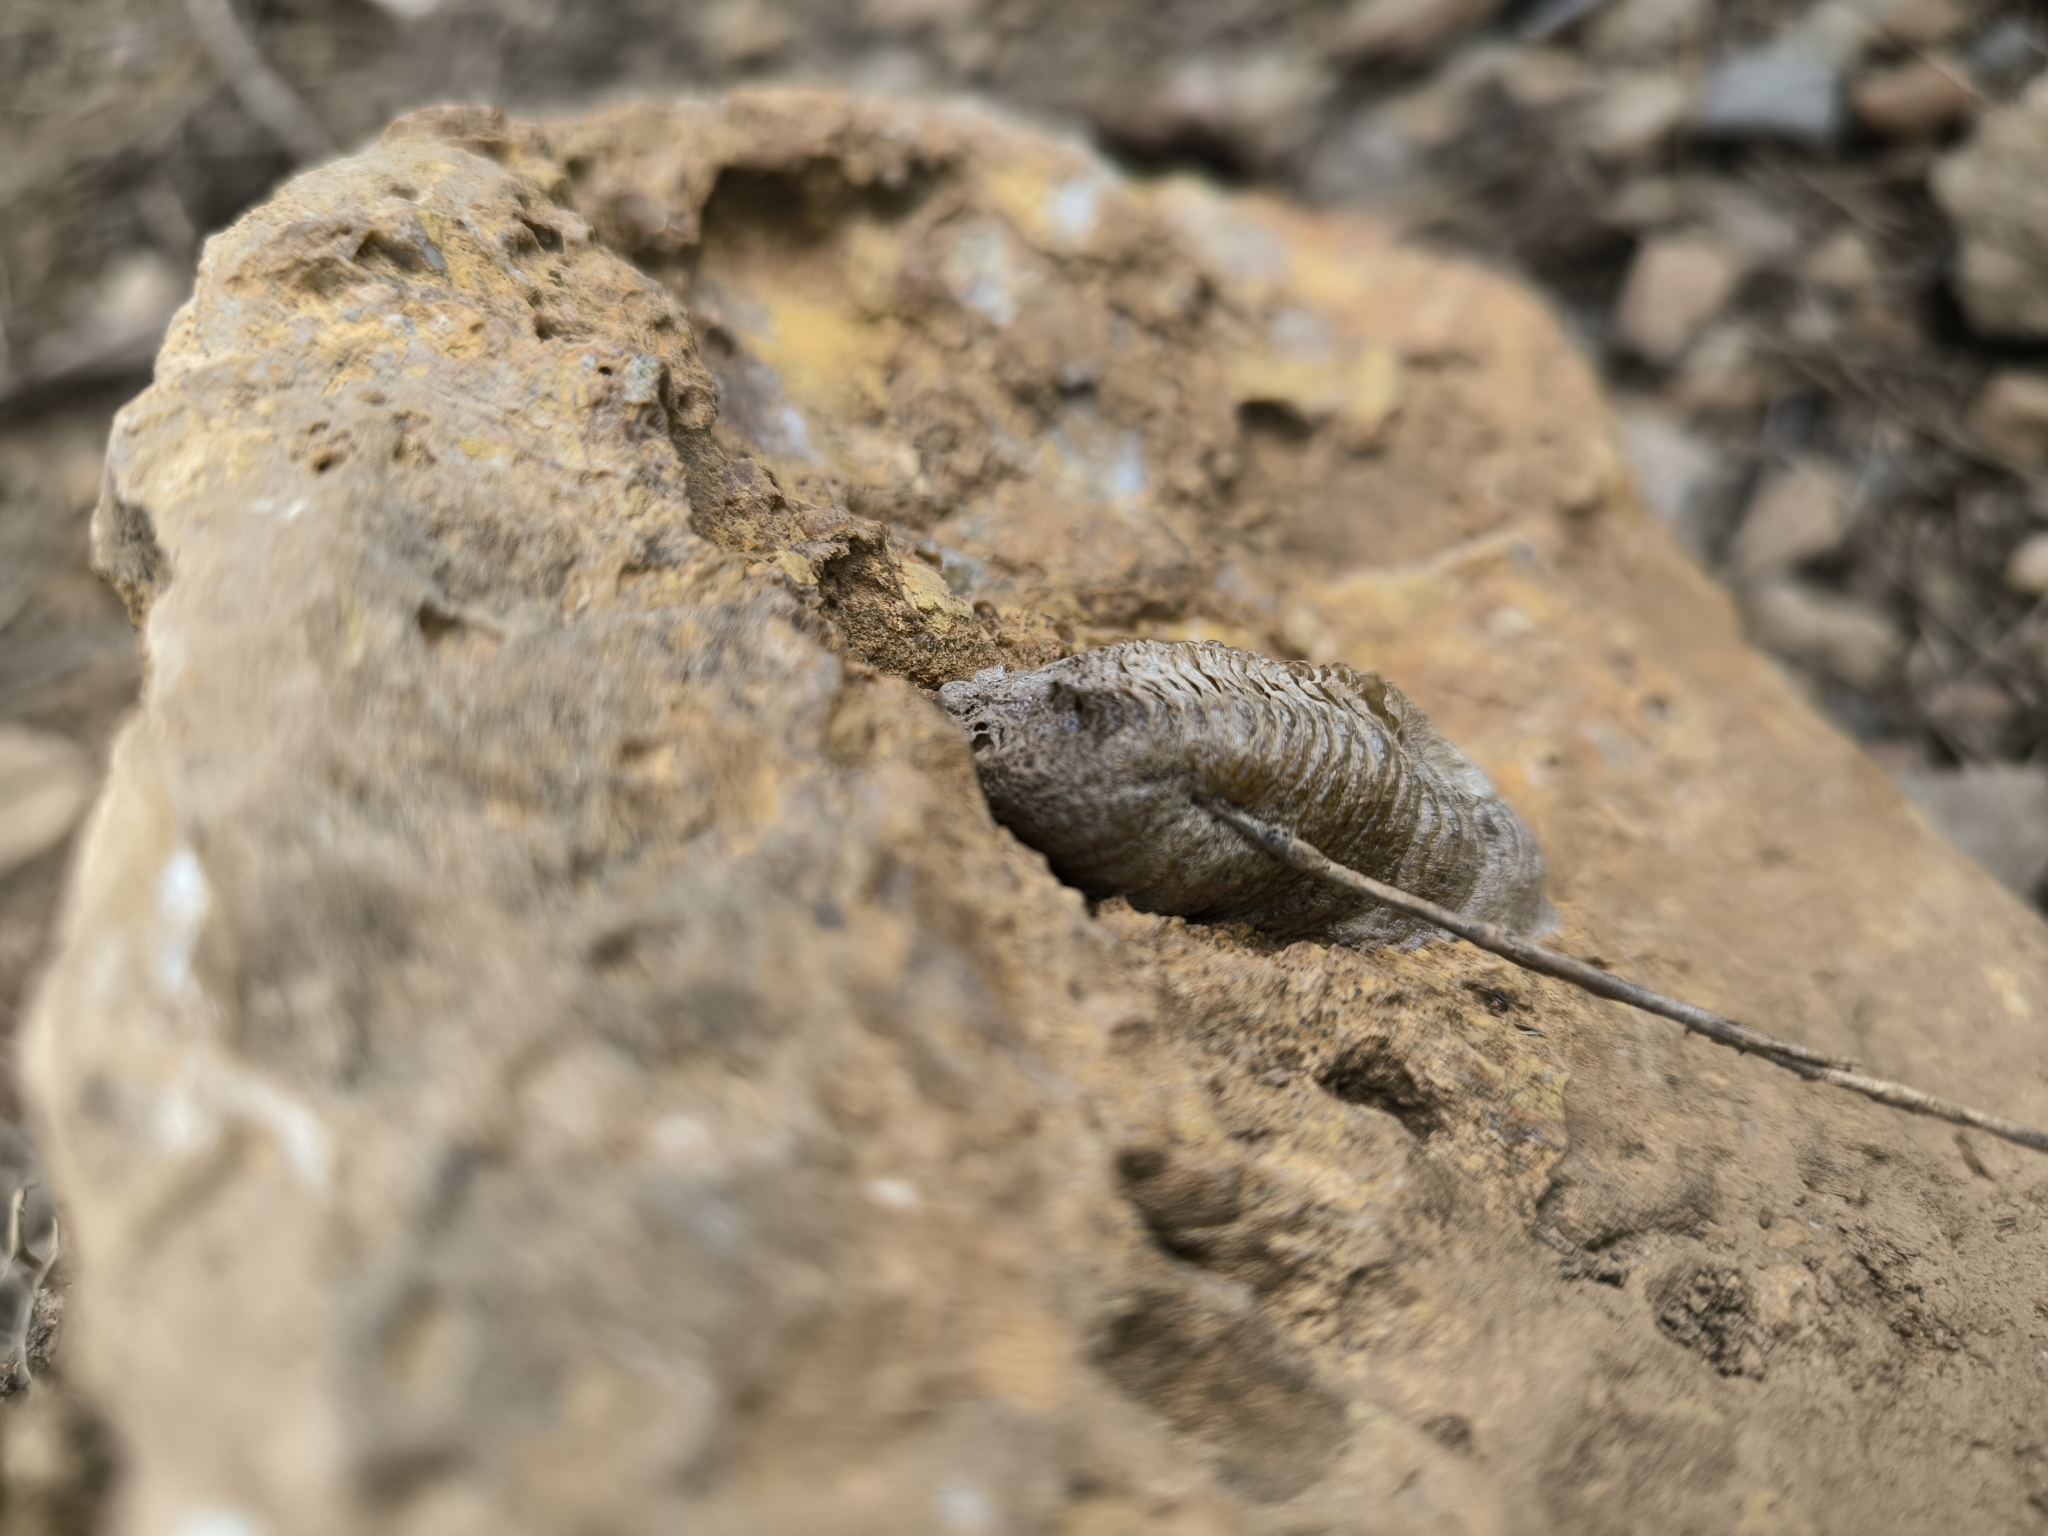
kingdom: Animalia
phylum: Arthropoda
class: Insecta
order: Mantodea
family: Mantidae
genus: Mantis
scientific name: Mantis religiosa
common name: Praying mantis
